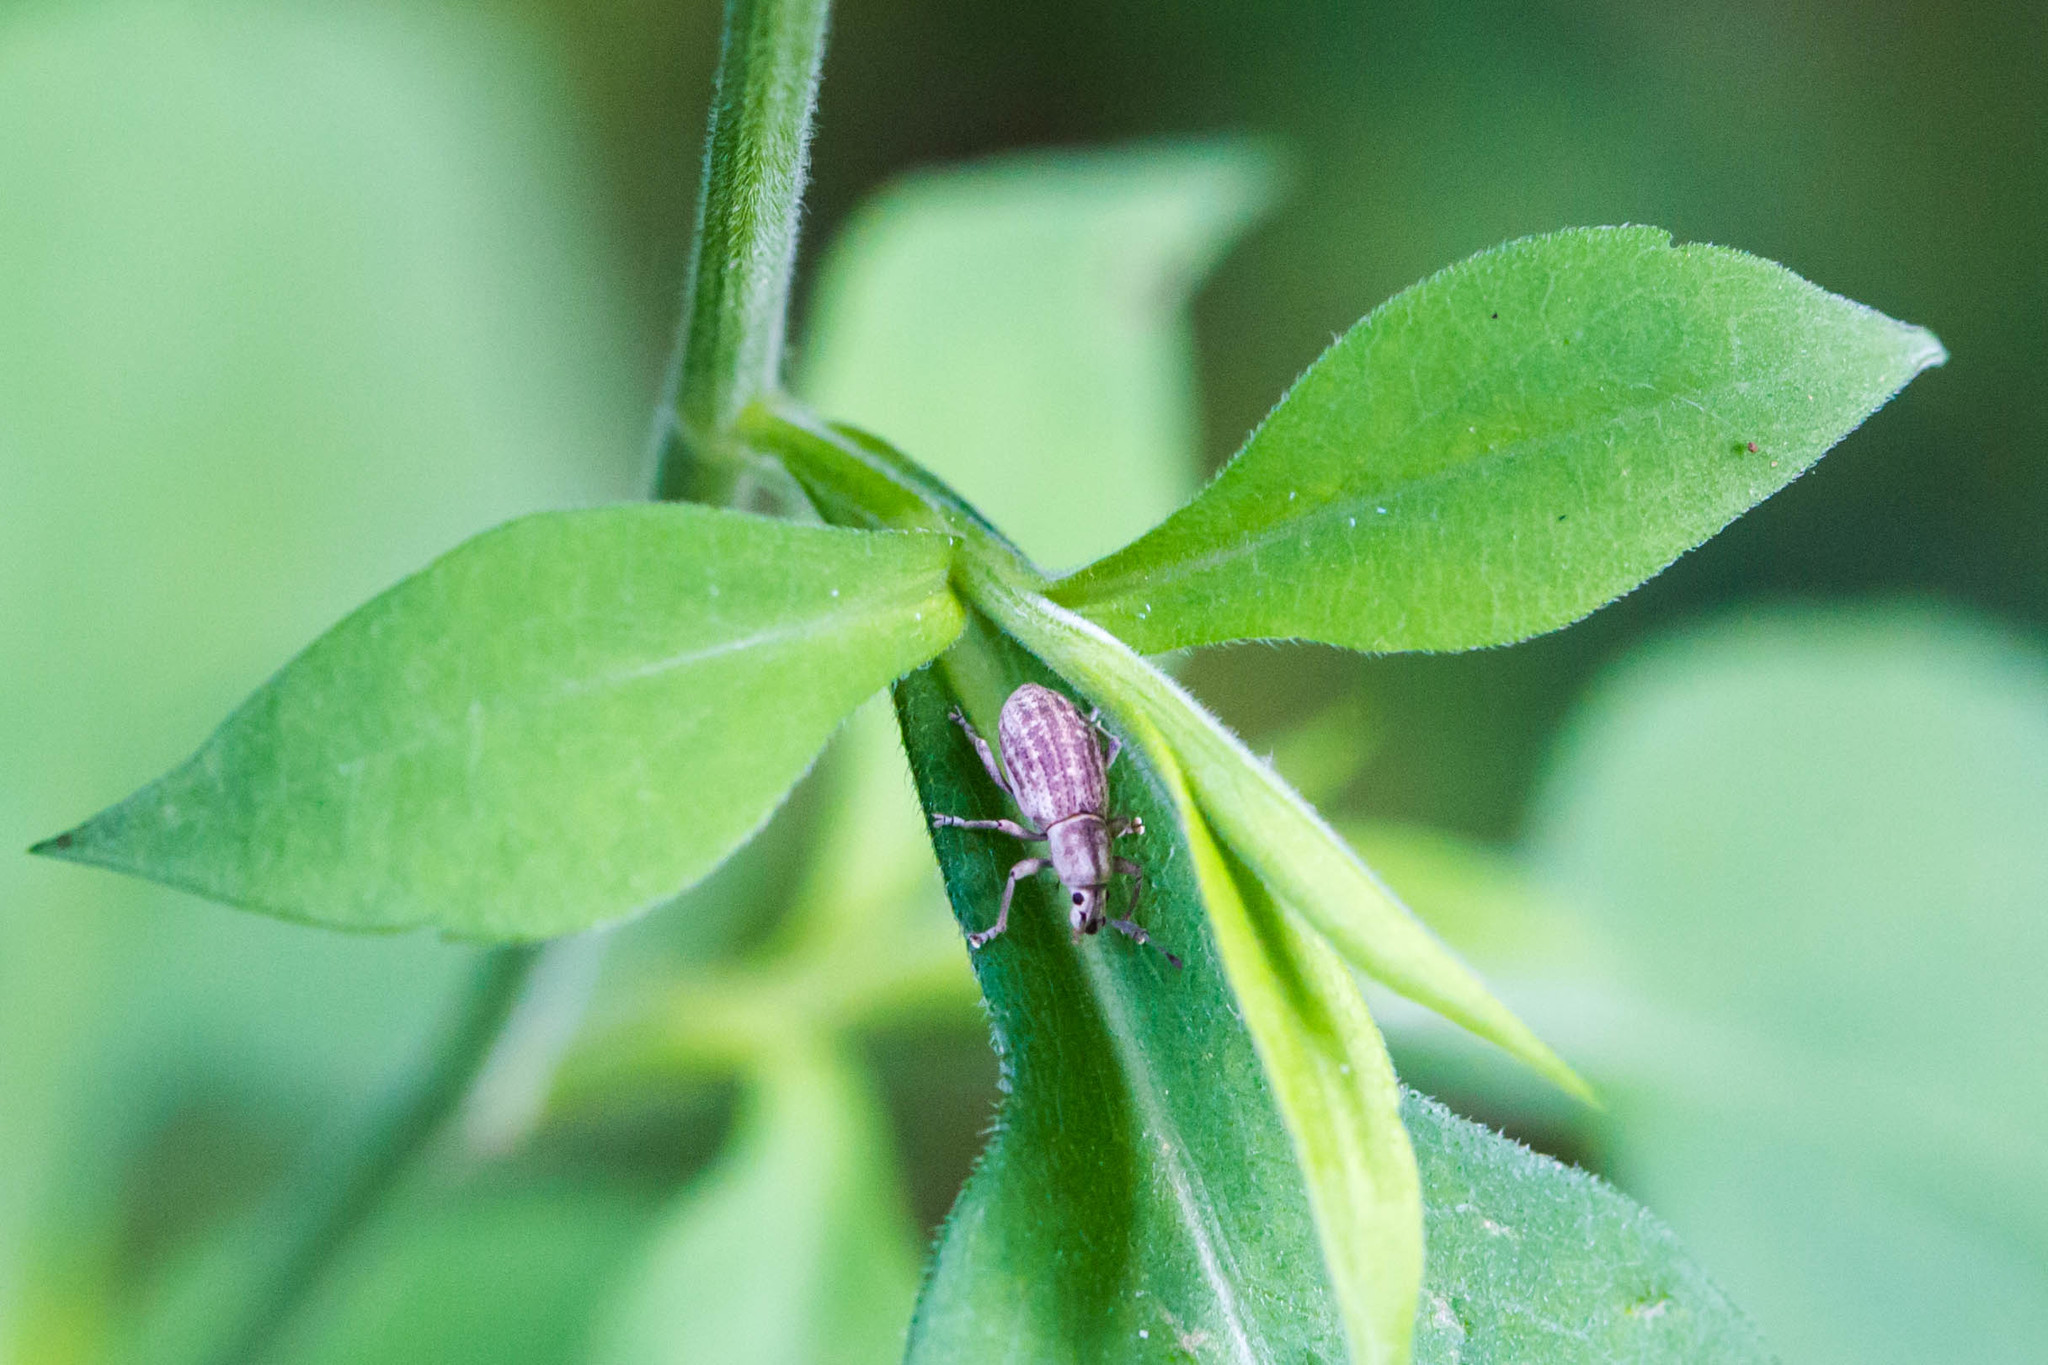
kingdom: Animalia
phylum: Arthropoda
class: Insecta
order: Coleoptera
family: Curculionidae
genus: Aphrastus
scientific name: Aphrastus taeniatus
